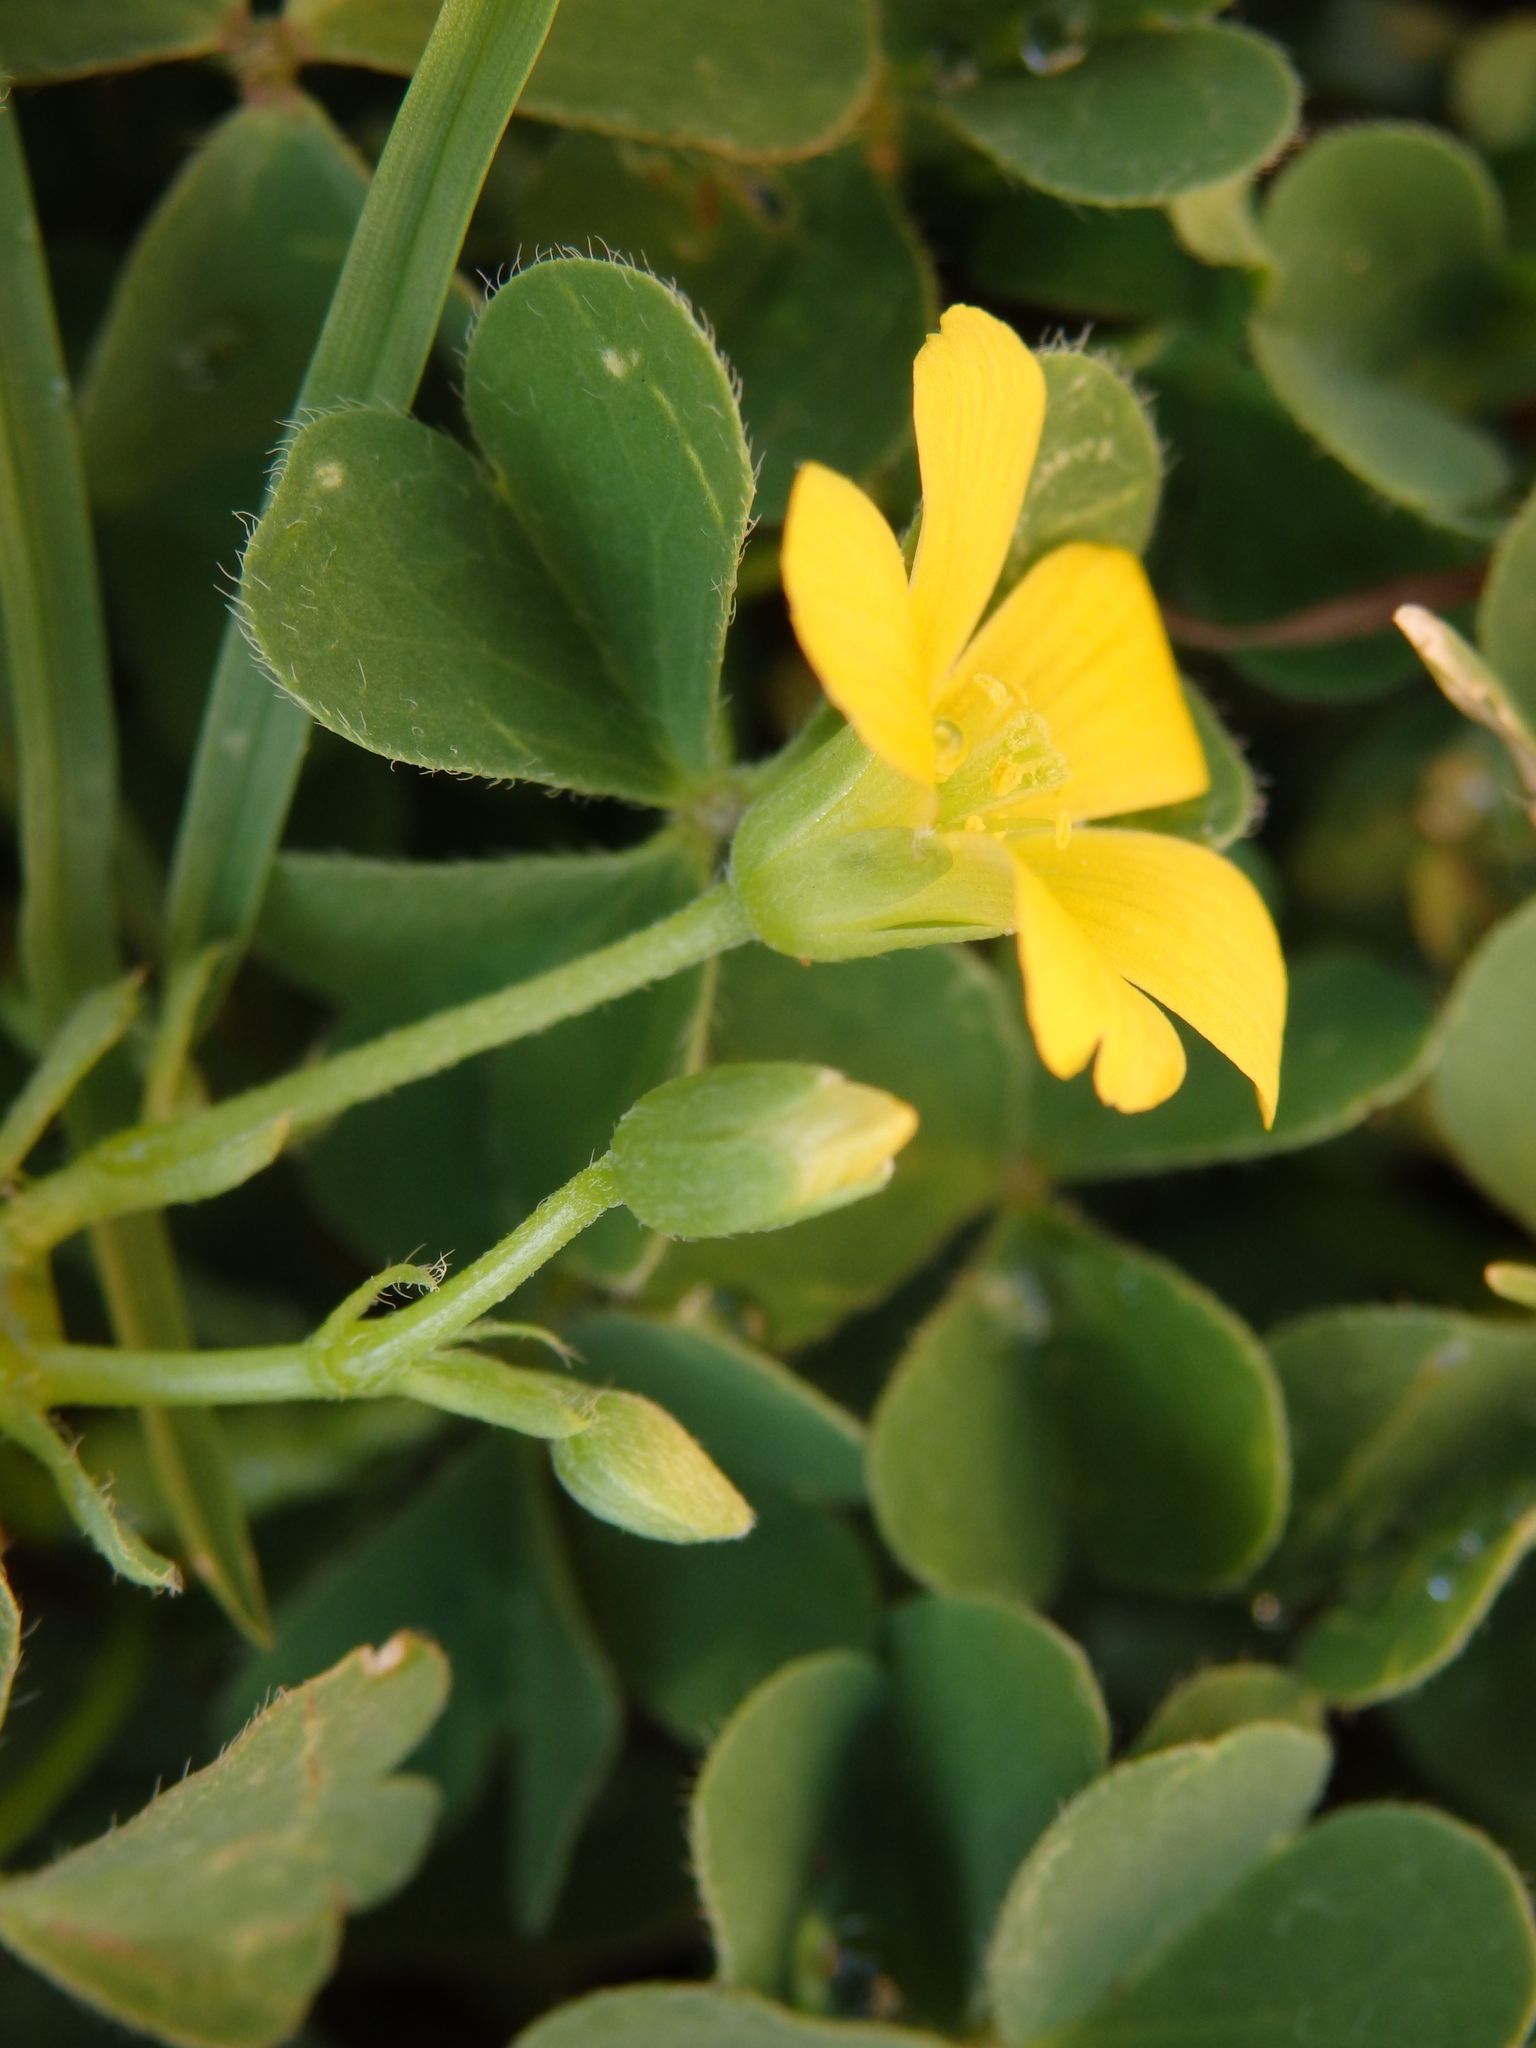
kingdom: Plantae
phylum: Tracheophyta
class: Magnoliopsida
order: Oxalidales
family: Oxalidaceae
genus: Oxalis
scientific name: Oxalis corniculata
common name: Procumbent yellow-sorrel
